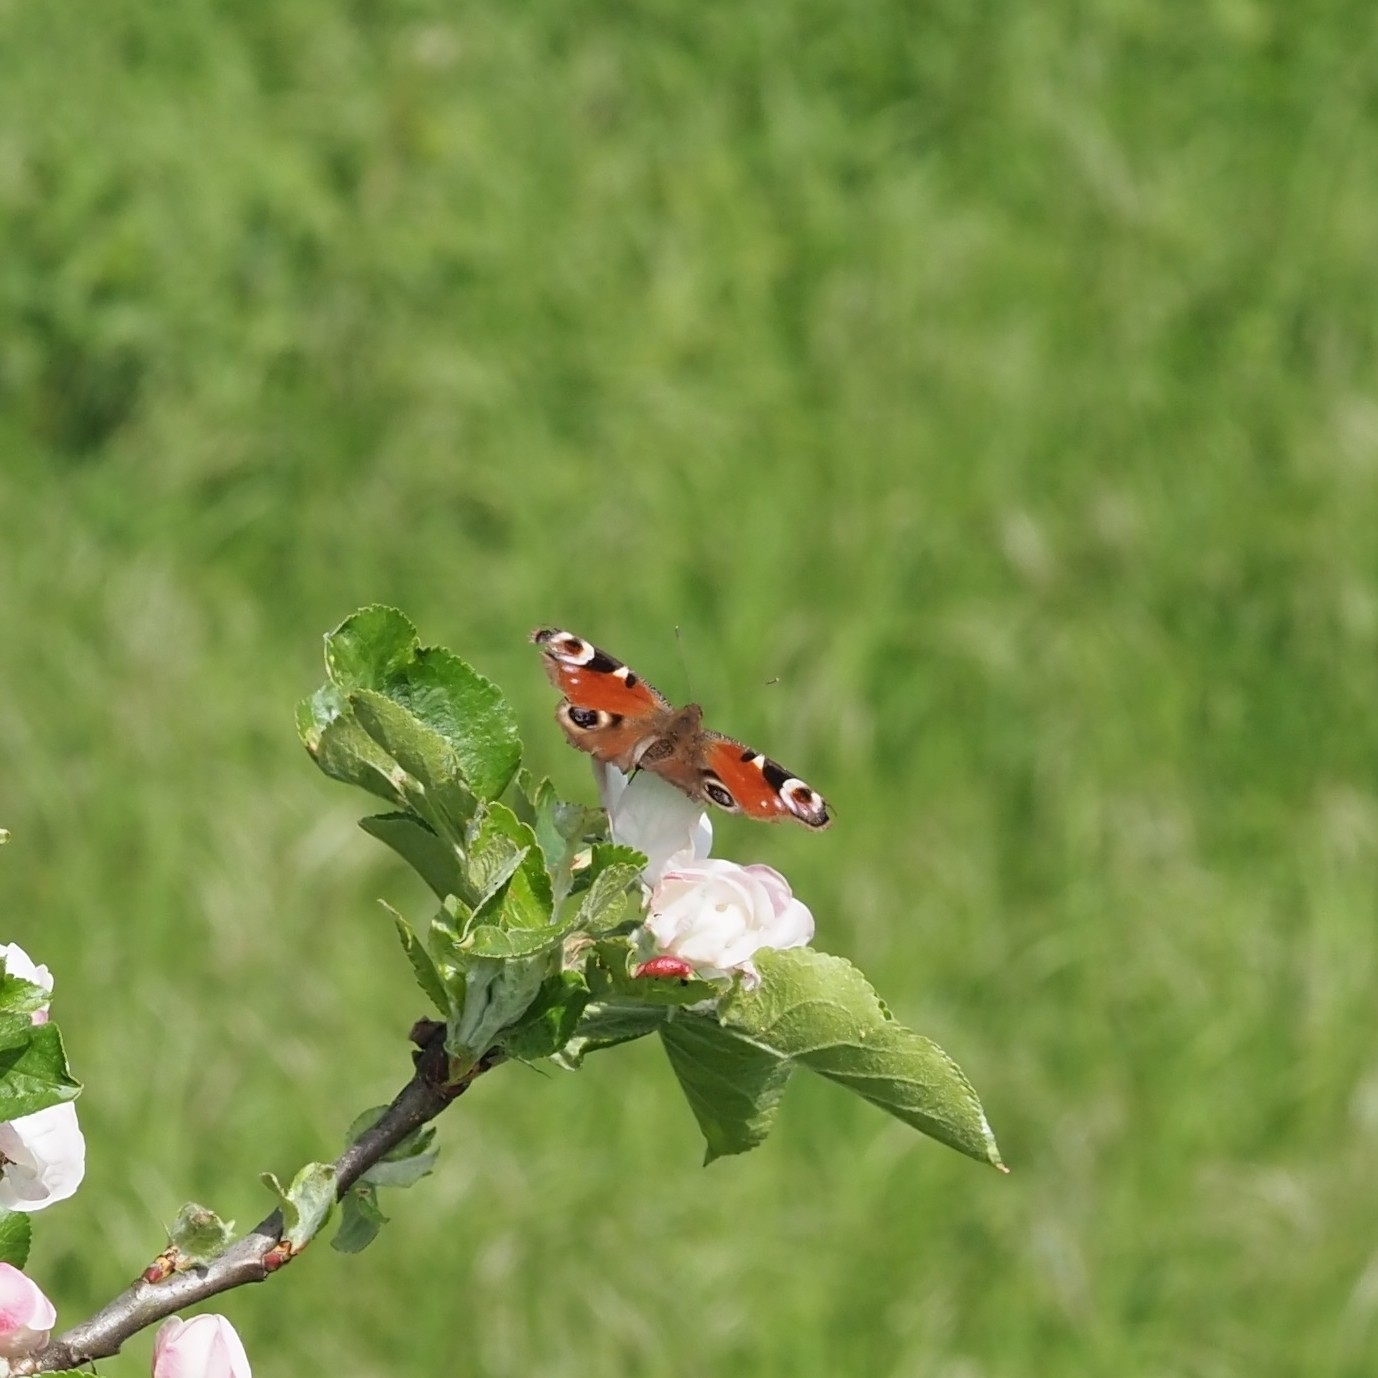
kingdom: Animalia
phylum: Arthropoda
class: Insecta
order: Lepidoptera
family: Nymphalidae
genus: Aglais
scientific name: Aglais io
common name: Peacock
